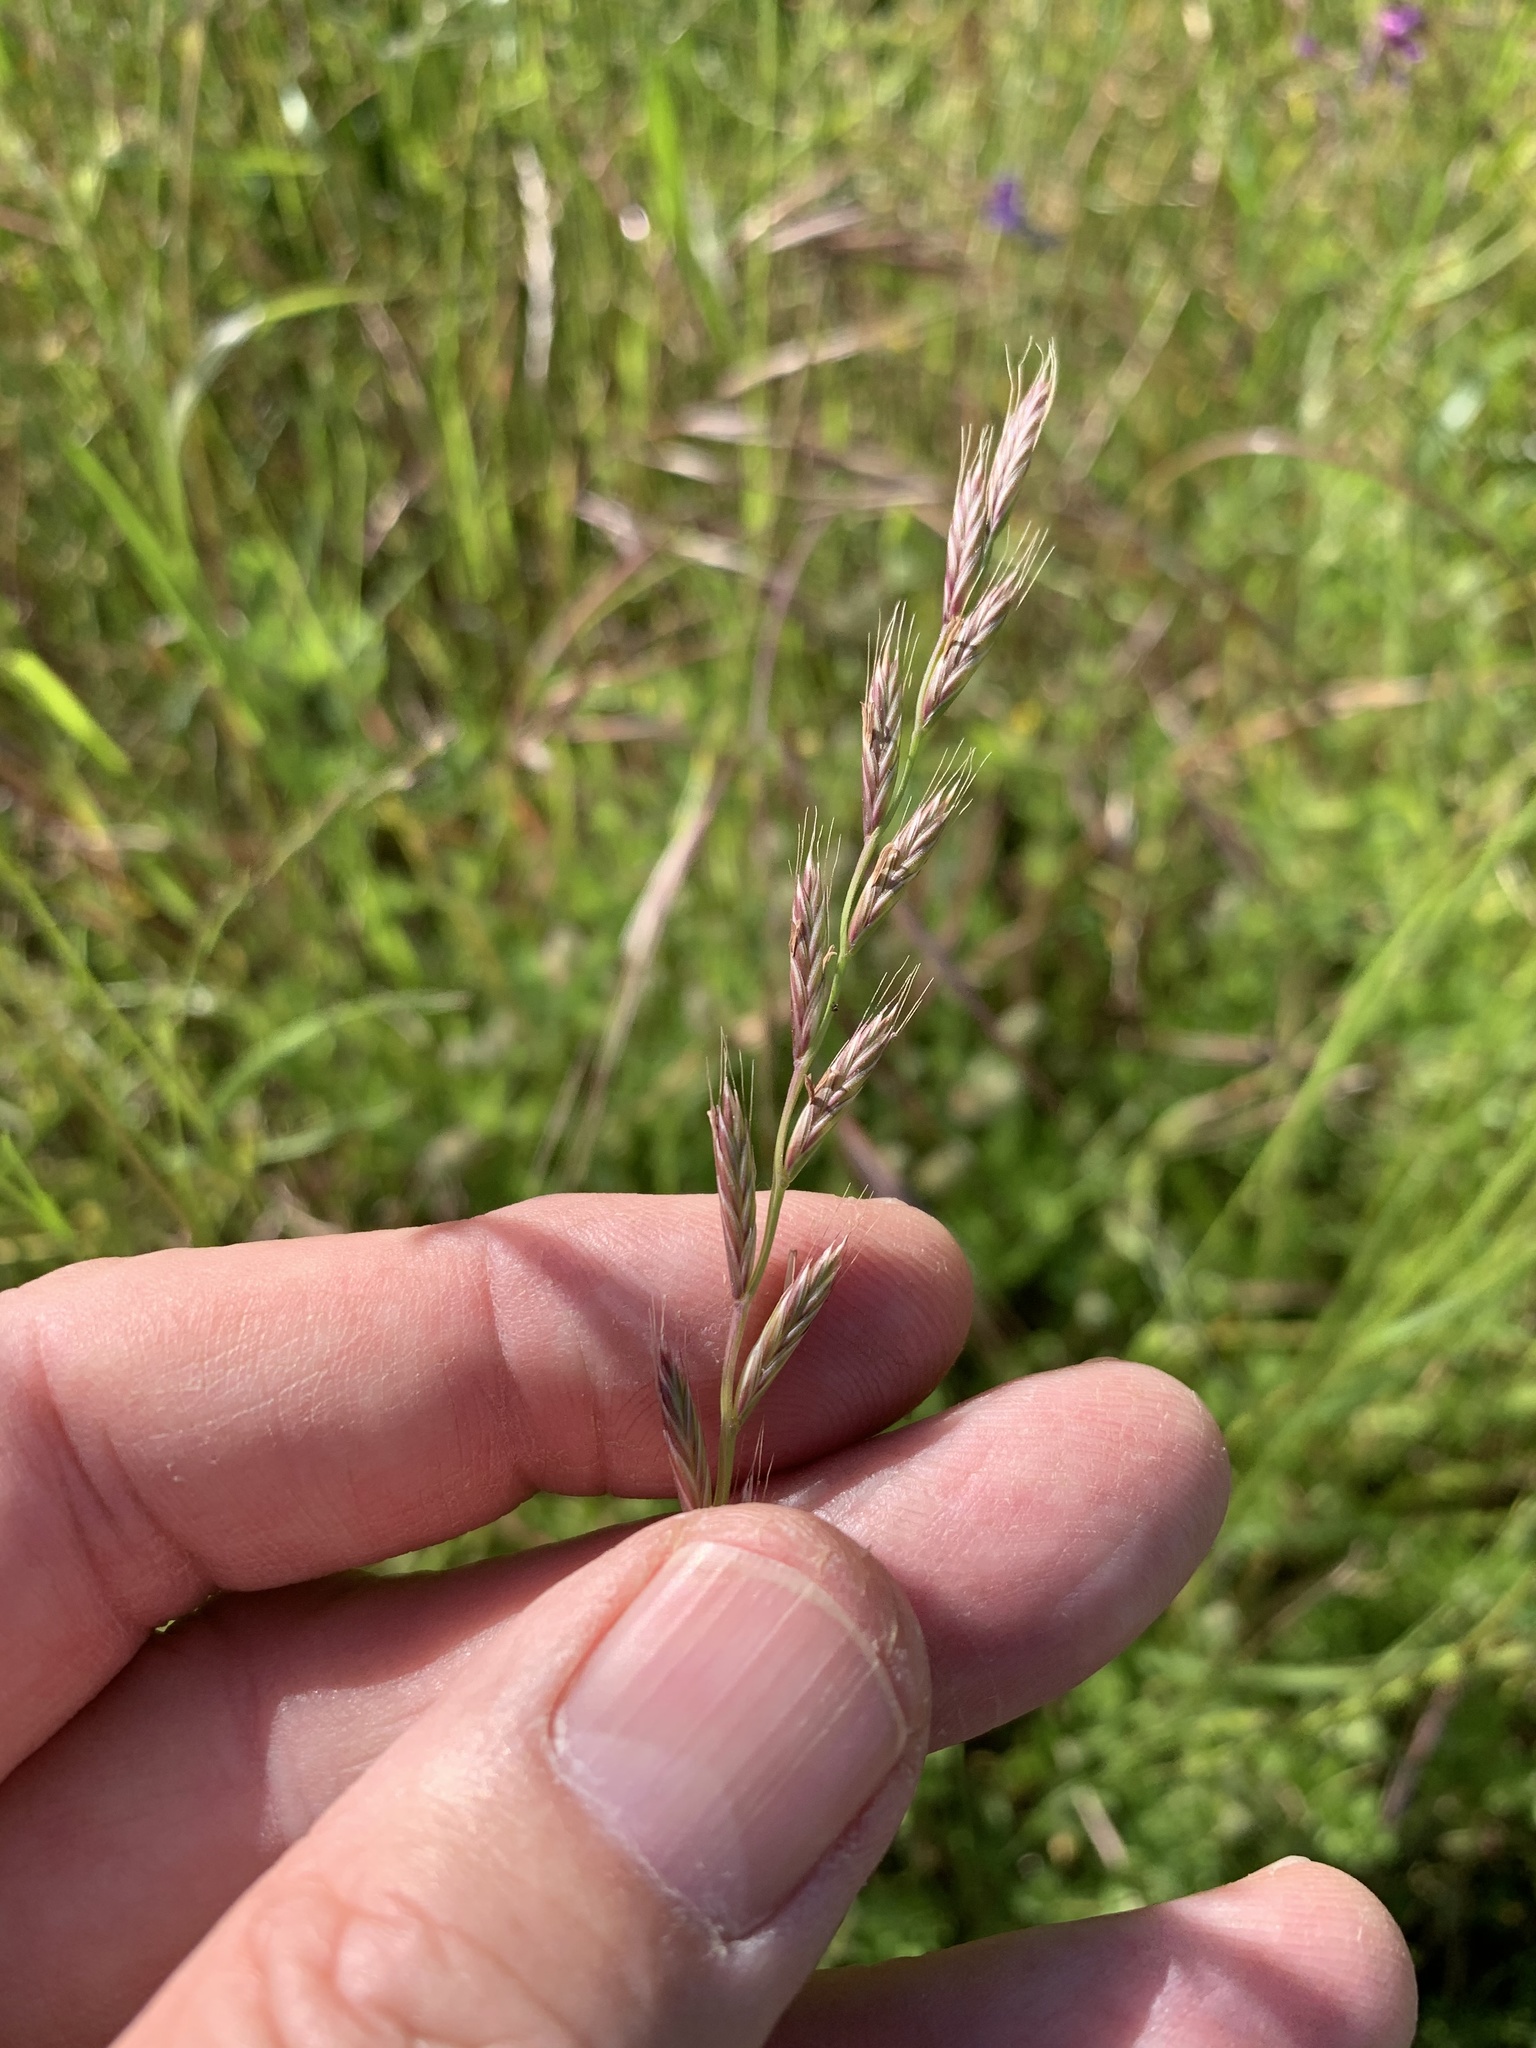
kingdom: Plantae
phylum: Tracheophyta
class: Liliopsida
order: Poales
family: Poaceae
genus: Lolium
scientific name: Lolium multiflorum
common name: Annual ryegrass
